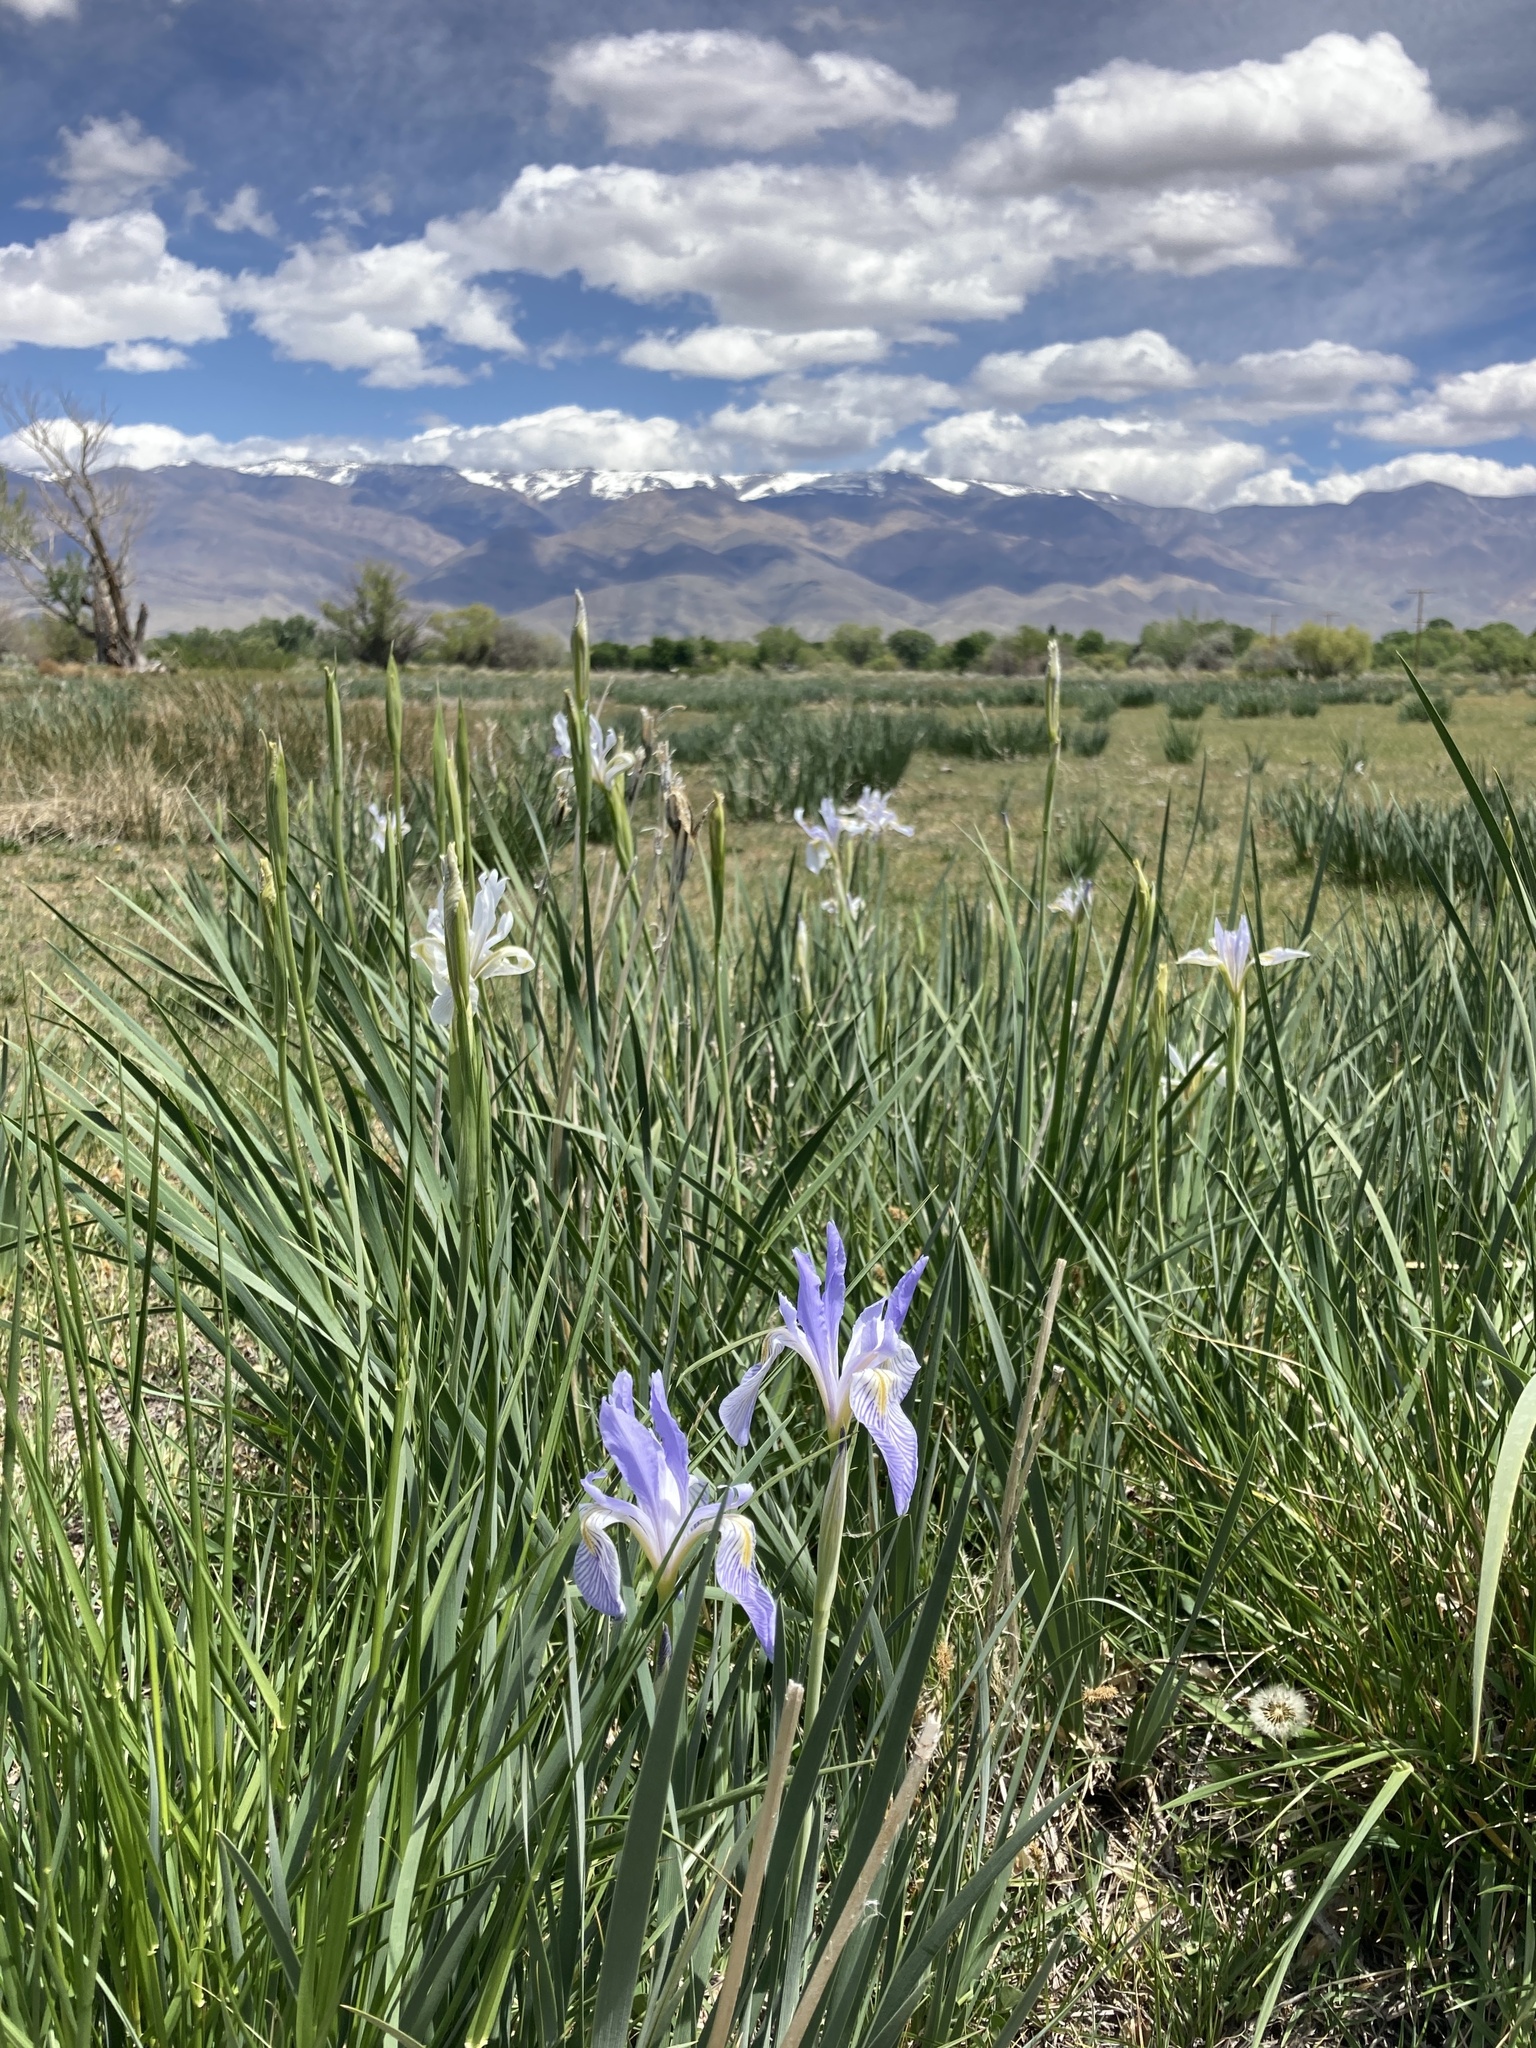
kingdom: Plantae
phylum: Tracheophyta
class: Liliopsida
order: Asparagales
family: Iridaceae
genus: Iris
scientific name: Iris missouriensis
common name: Rocky mountain iris
